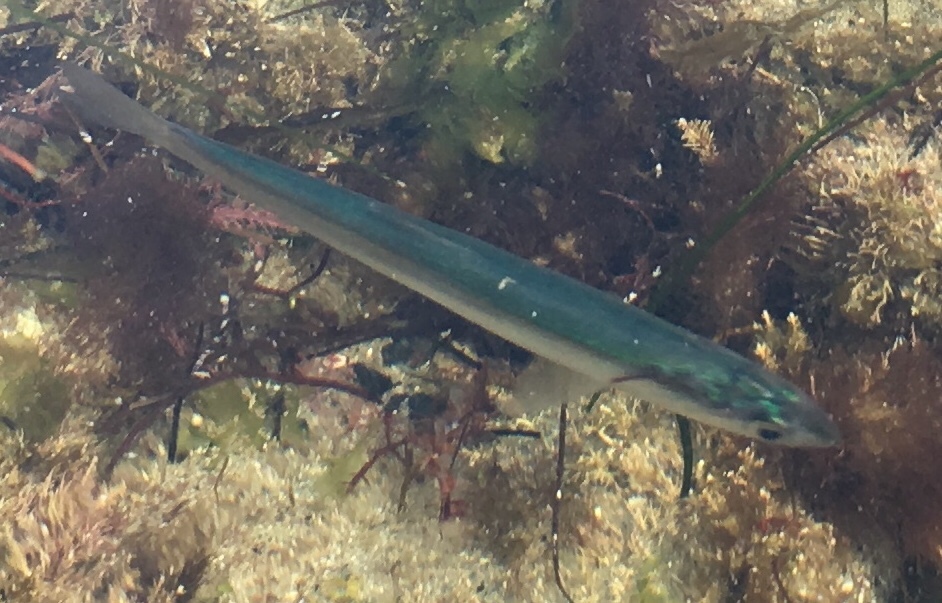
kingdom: Animalia
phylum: Chordata
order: Atheriniformes
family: Atherinopsidae
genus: Leuresthes
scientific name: Leuresthes tenuis
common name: California grunion
